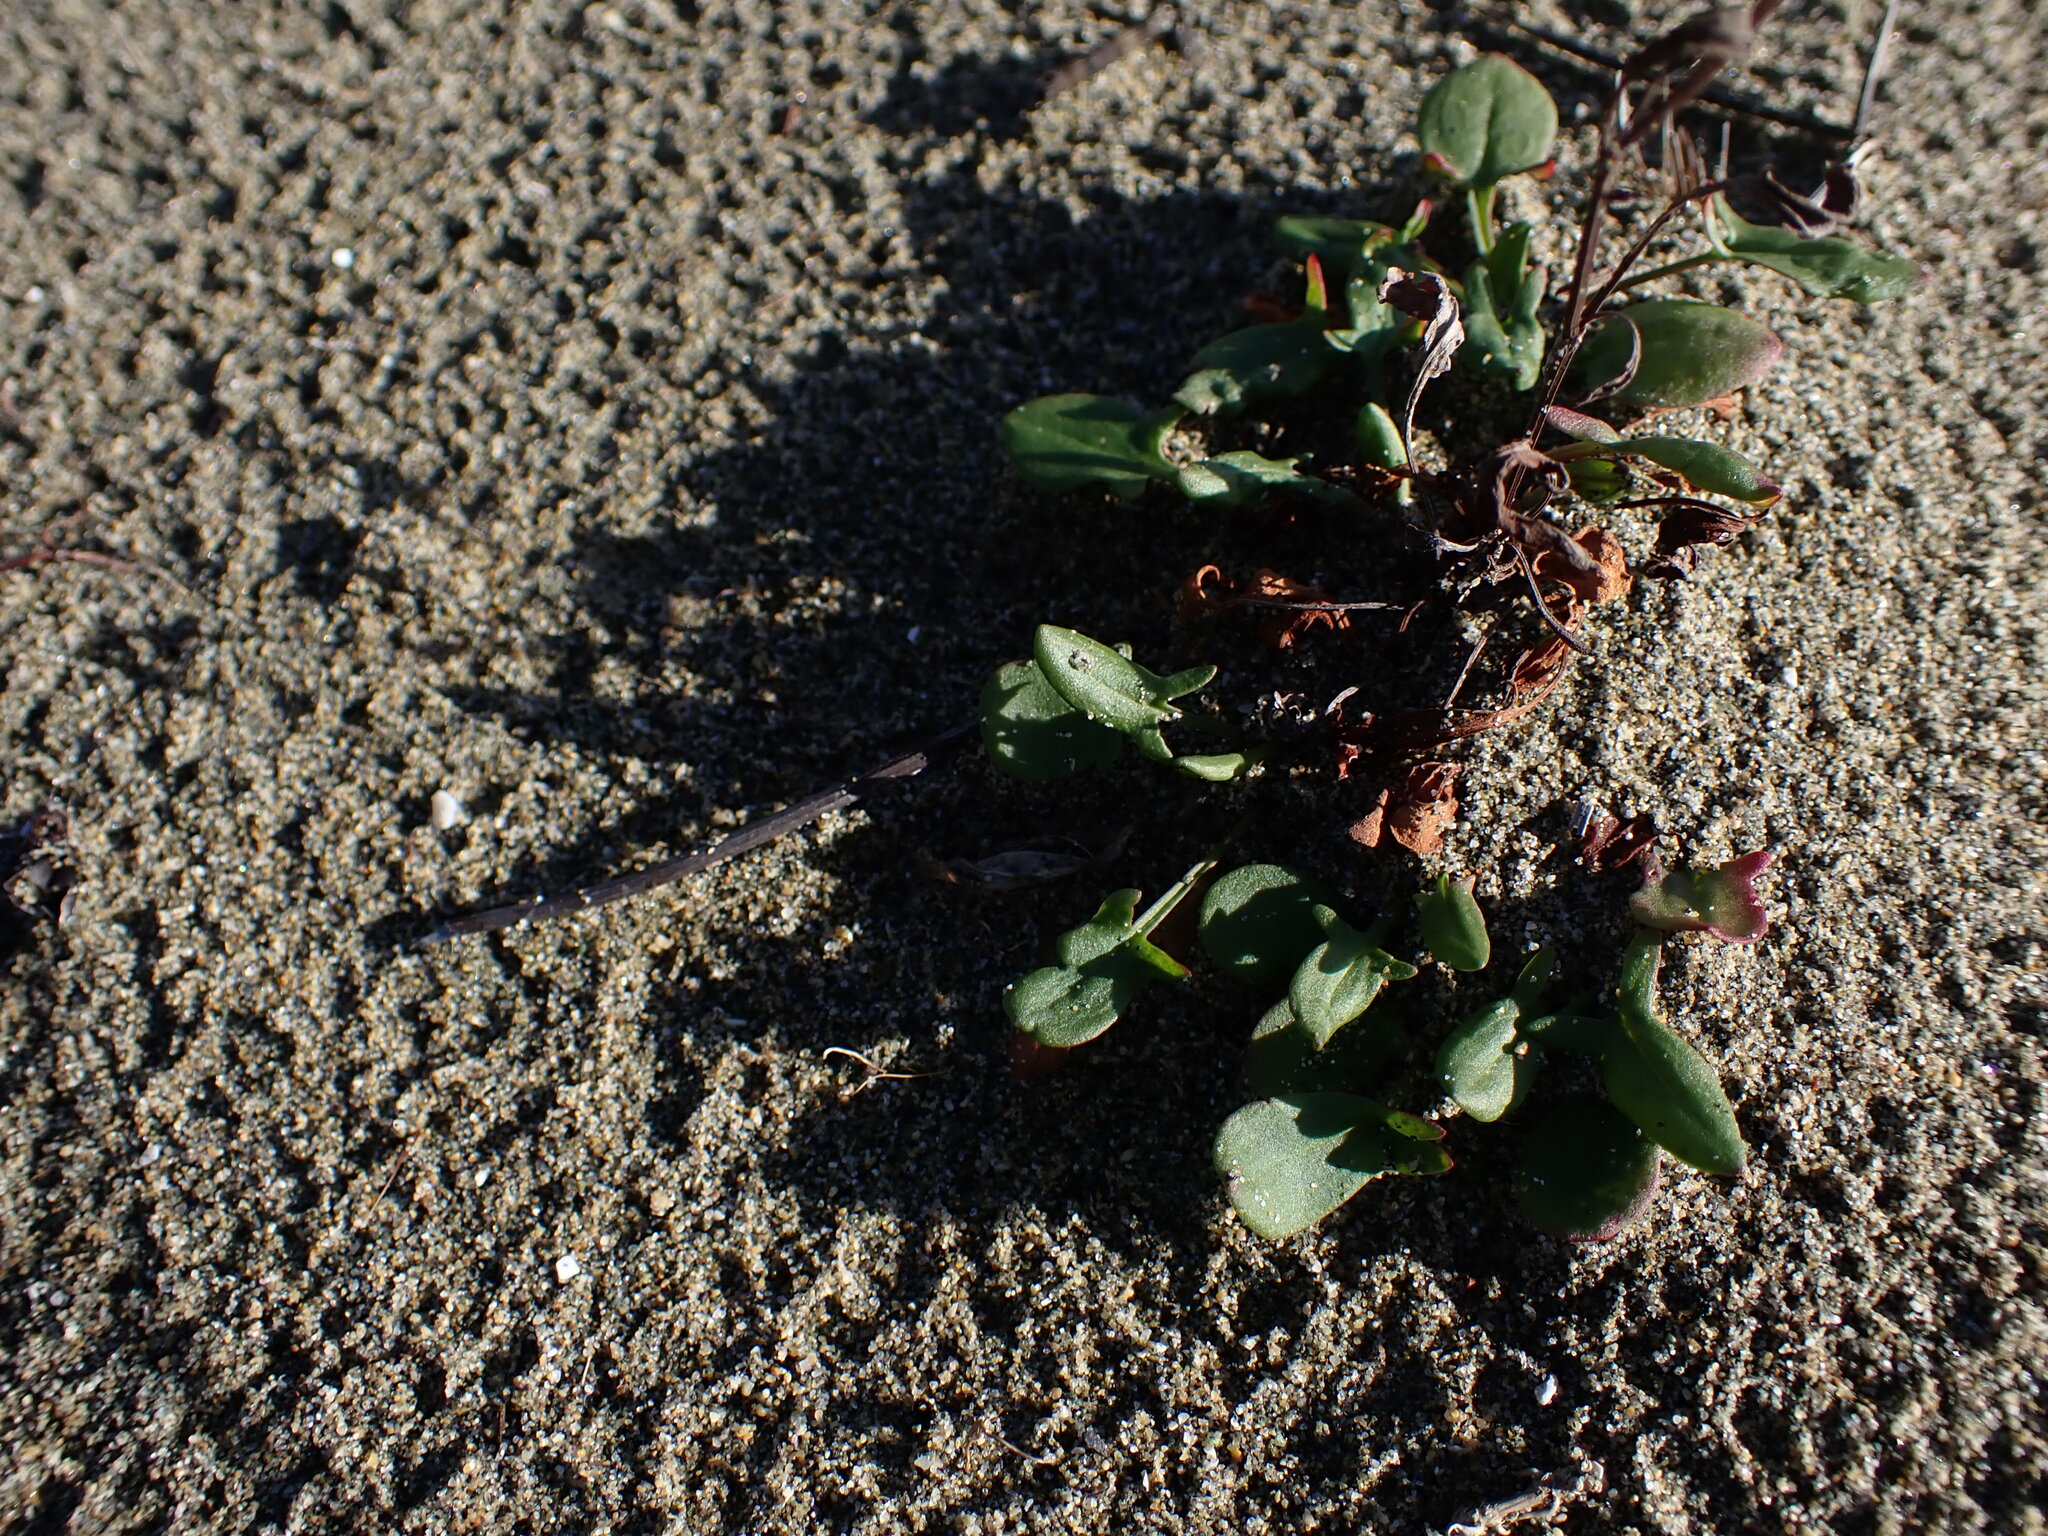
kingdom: Plantae
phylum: Tracheophyta
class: Magnoliopsida
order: Caryophyllales
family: Polygonaceae
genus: Rumex
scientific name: Rumex acetosella
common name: Common sheep sorrel
